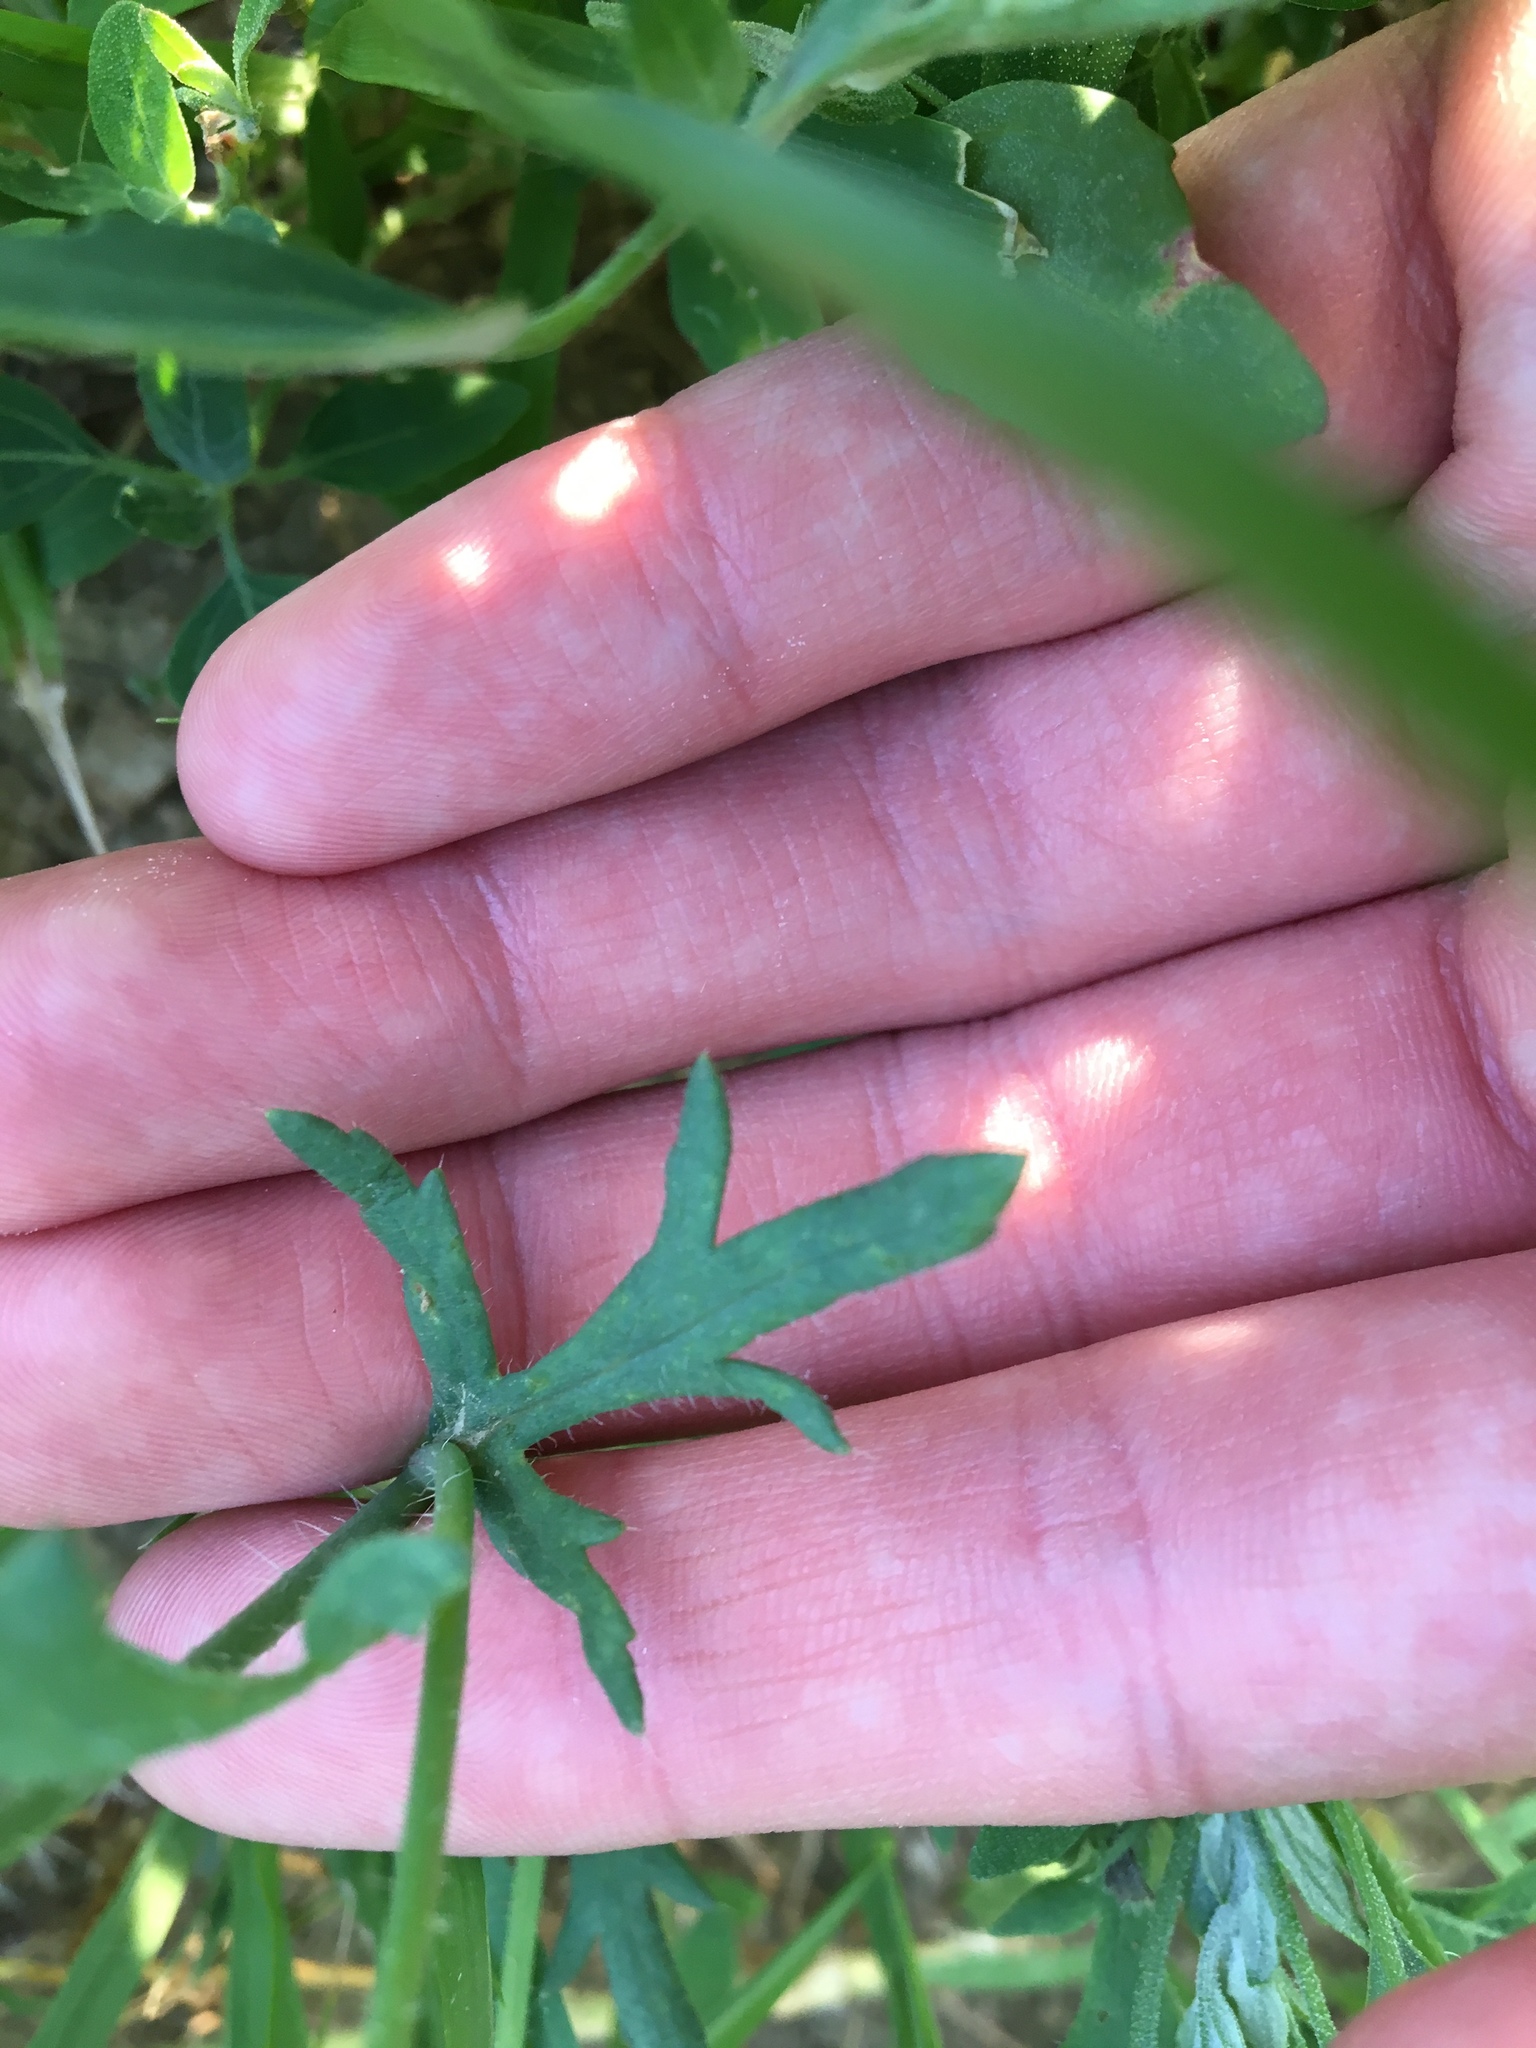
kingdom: Plantae
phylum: Tracheophyta
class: Magnoliopsida
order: Ranunculales
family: Papaveraceae
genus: Papaver
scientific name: Papaver rhoeas
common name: Corn poppy
